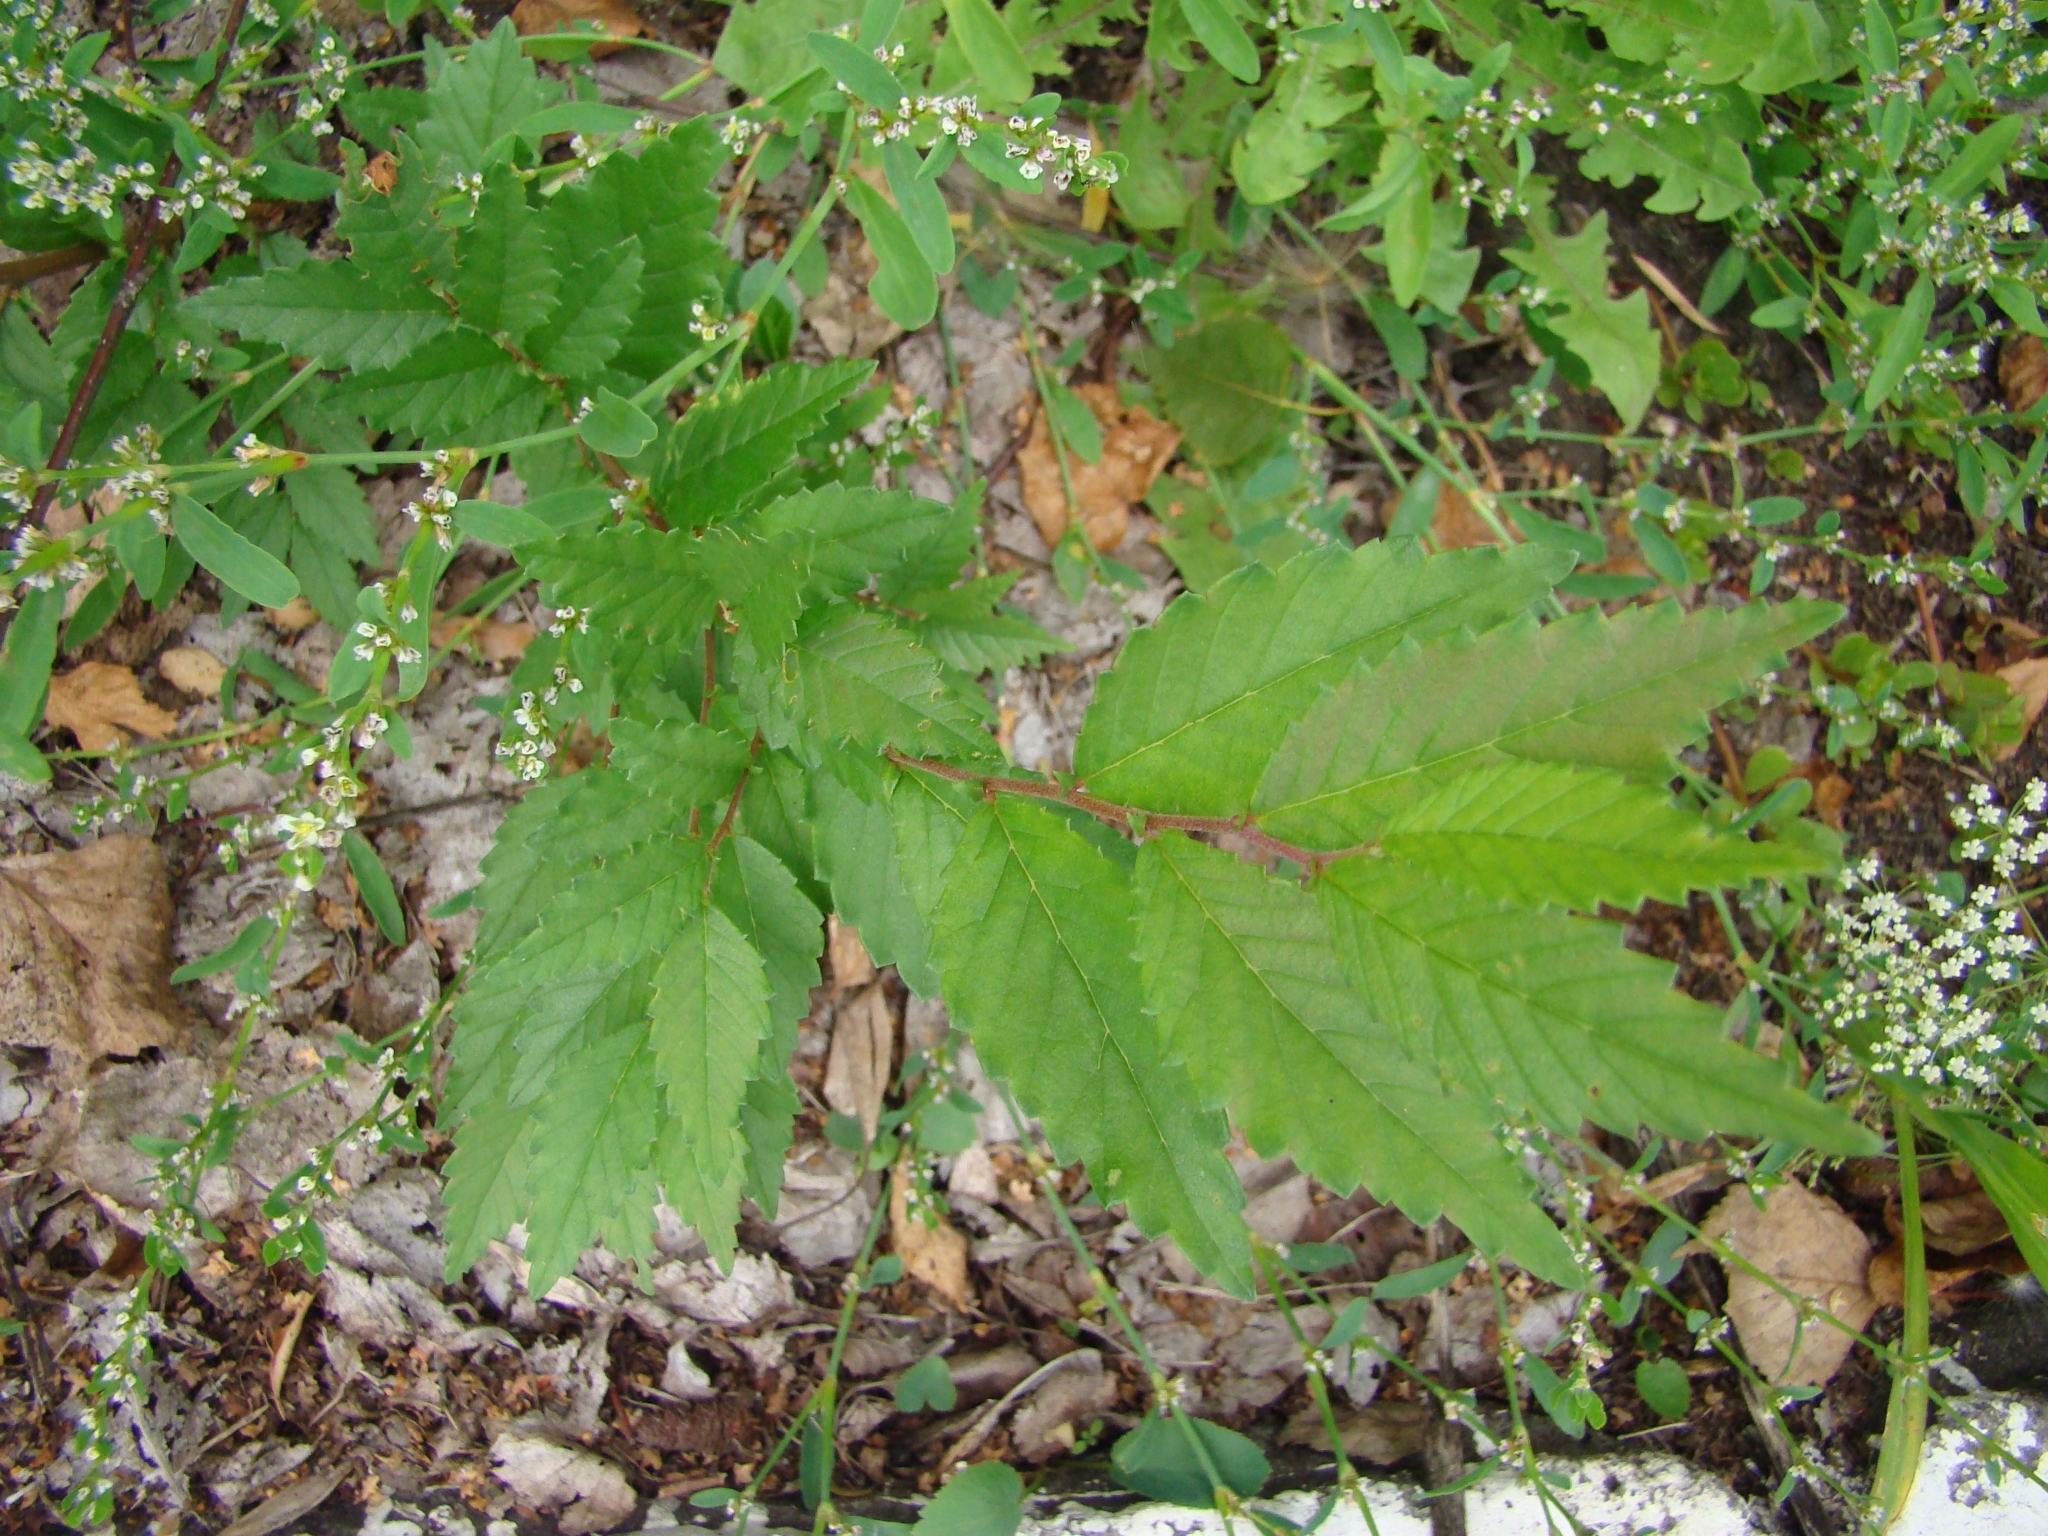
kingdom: Plantae
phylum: Tracheophyta
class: Magnoliopsida
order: Rosales
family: Ulmaceae
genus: Ulmus
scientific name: Ulmus pumila
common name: Siberian elm
